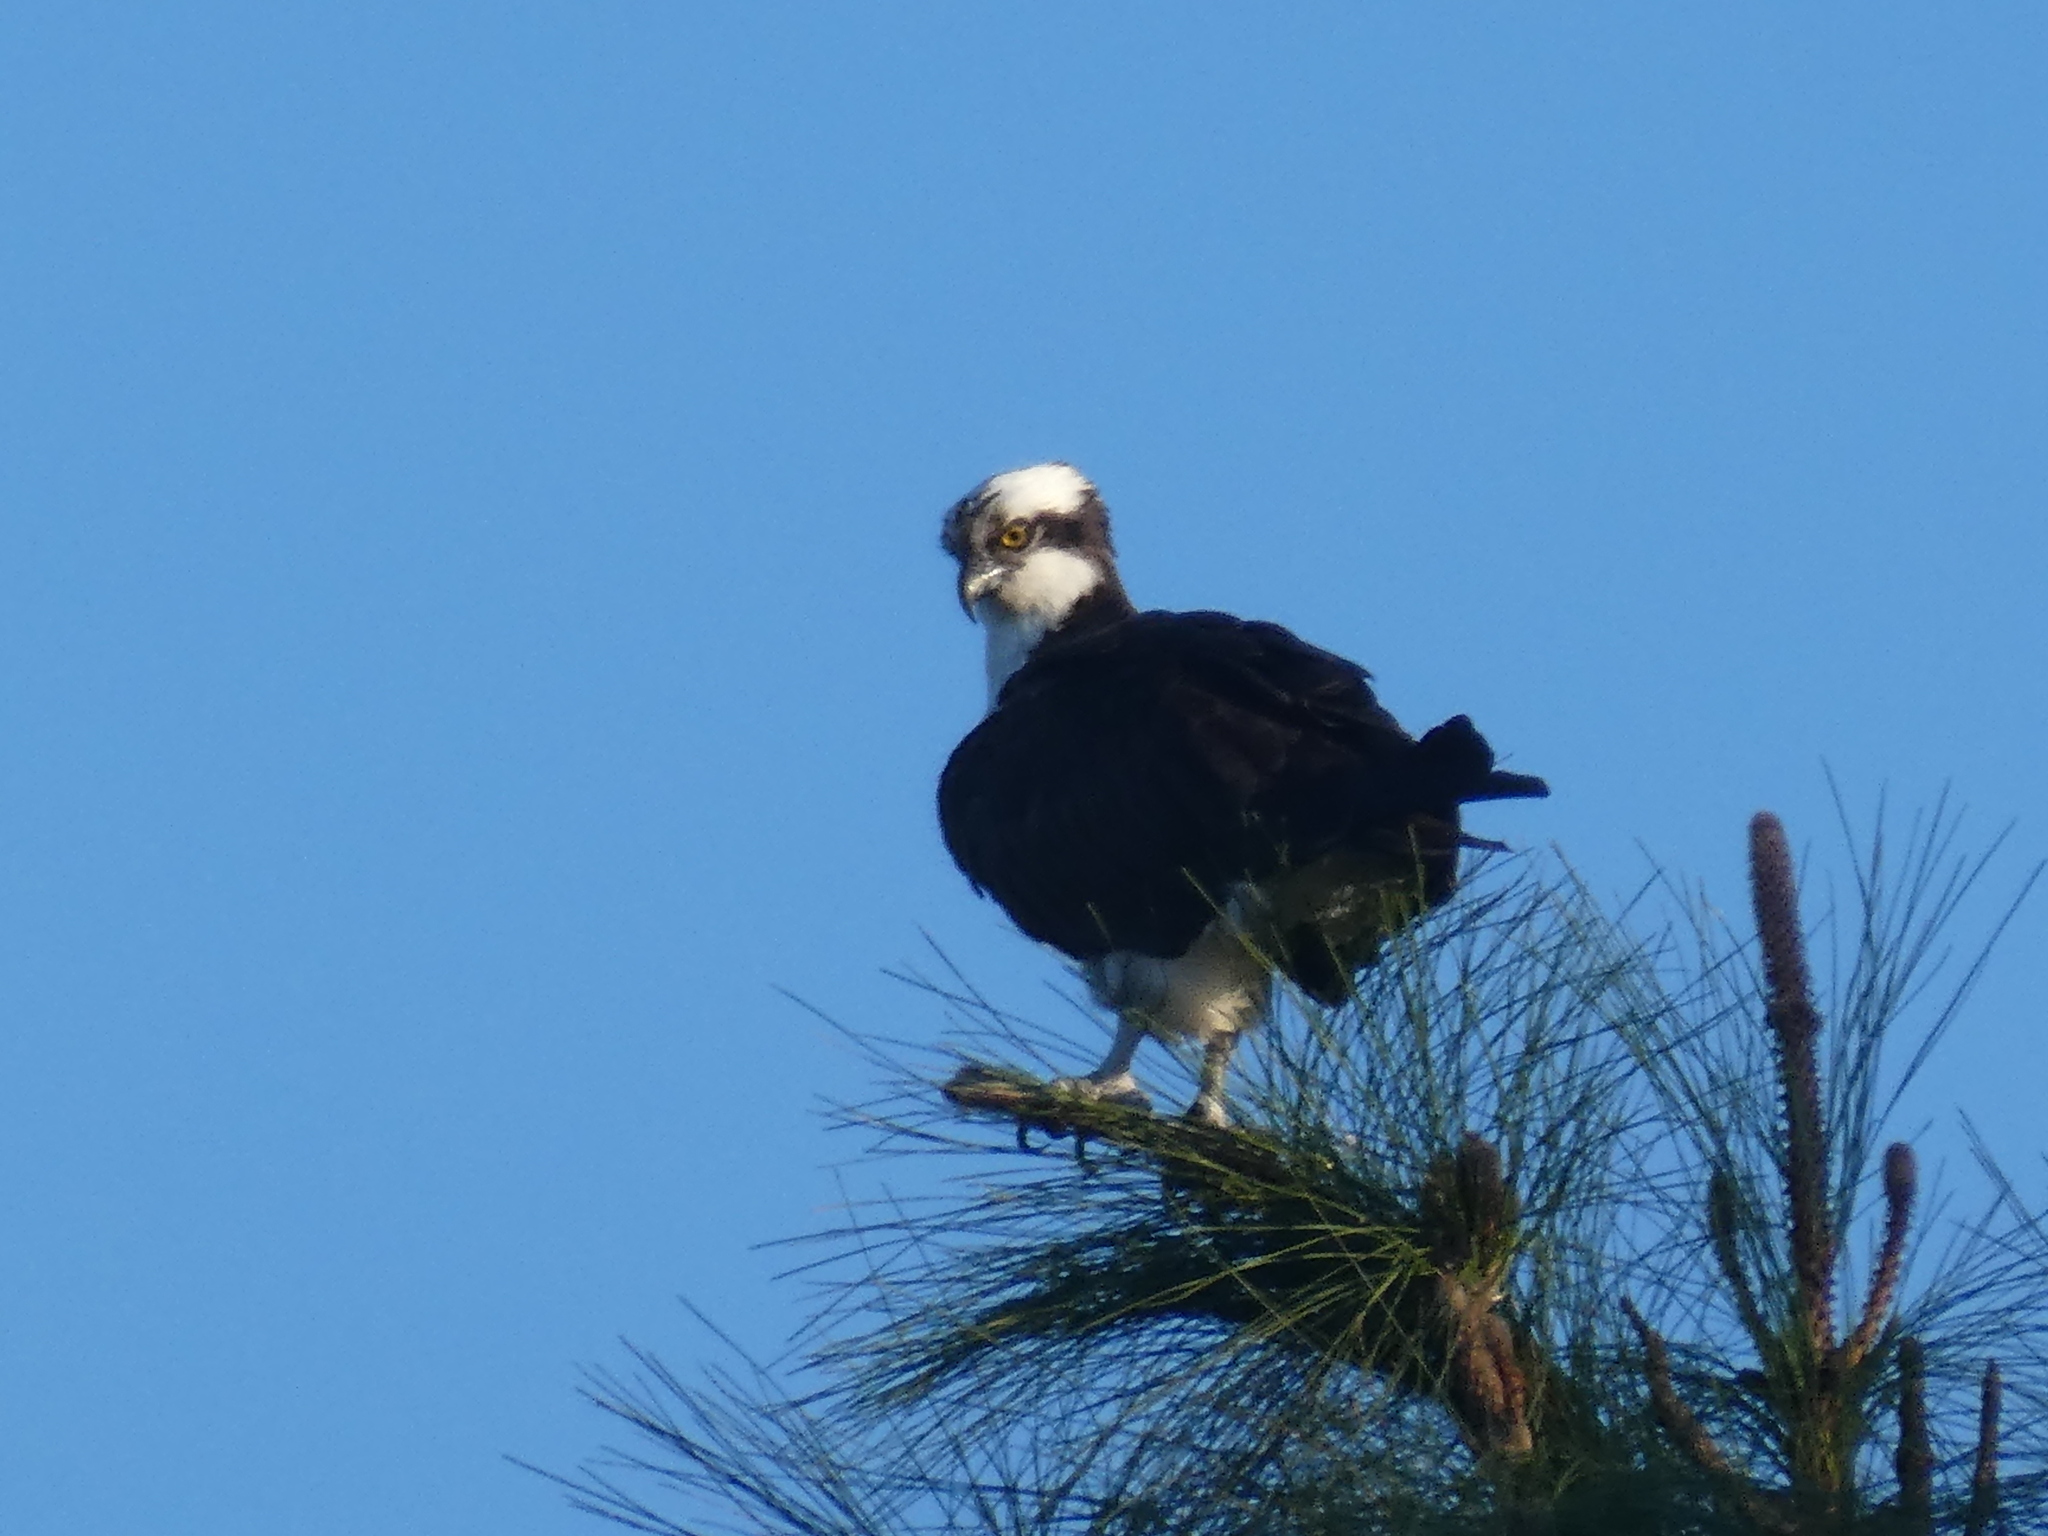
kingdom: Animalia
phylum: Chordata
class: Aves
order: Accipitriformes
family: Pandionidae
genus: Pandion
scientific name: Pandion haliaetus
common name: Osprey
